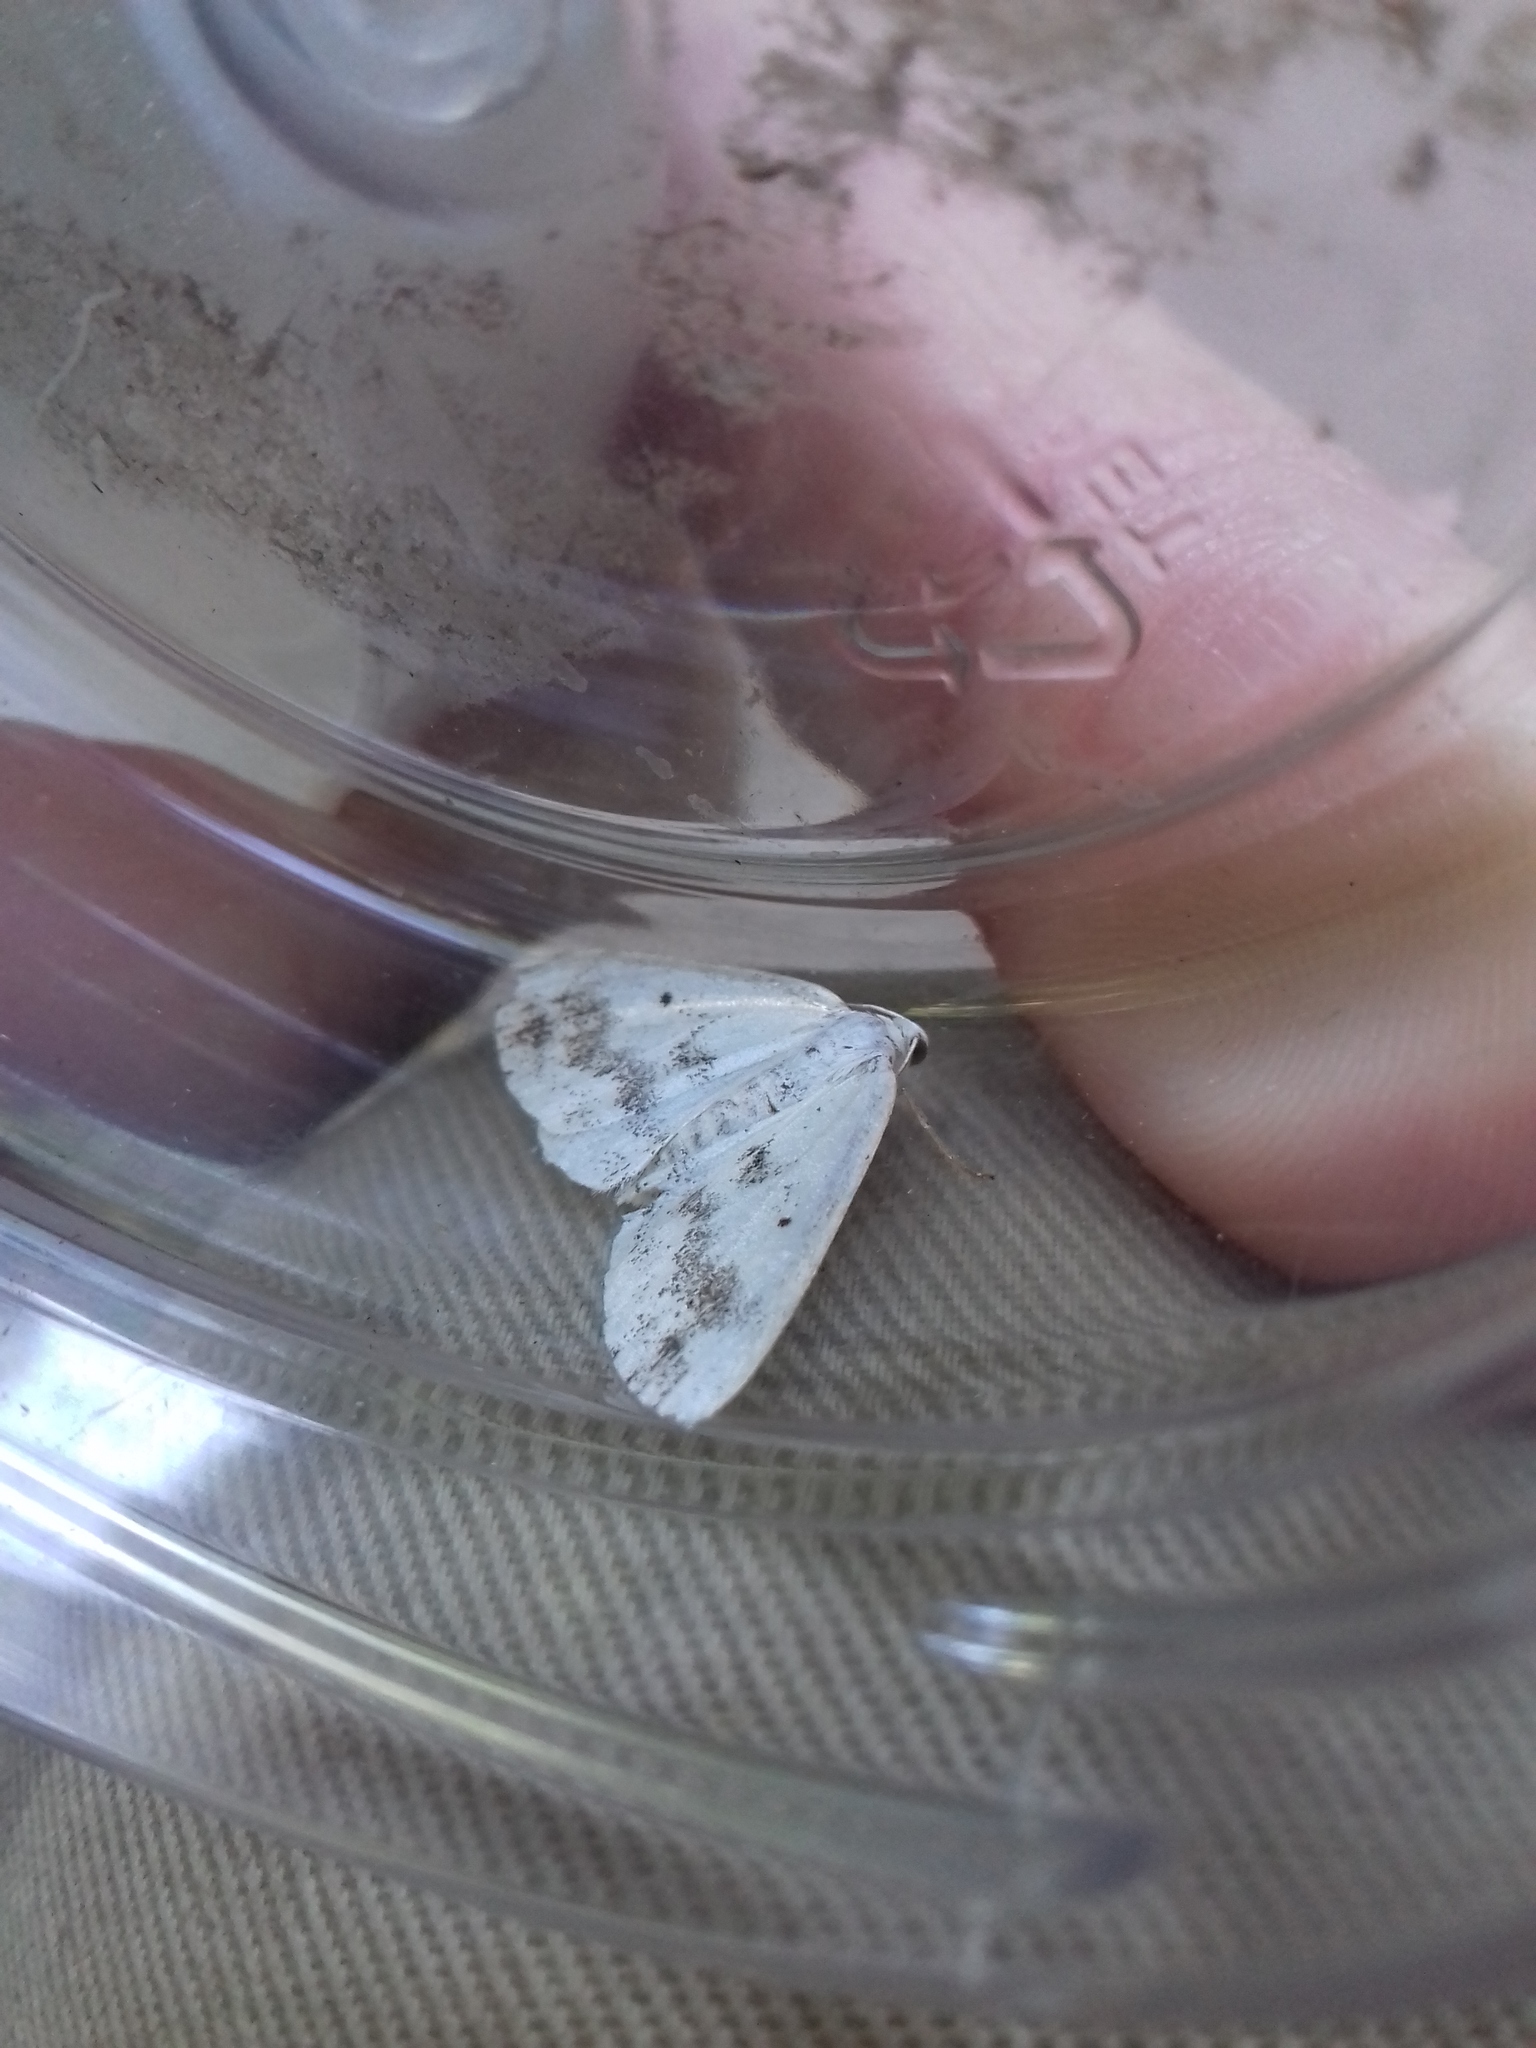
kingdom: Animalia
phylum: Arthropoda
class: Insecta
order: Lepidoptera
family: Geometridae
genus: Lomographa
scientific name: Lomographa temerata
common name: Clouded silver
